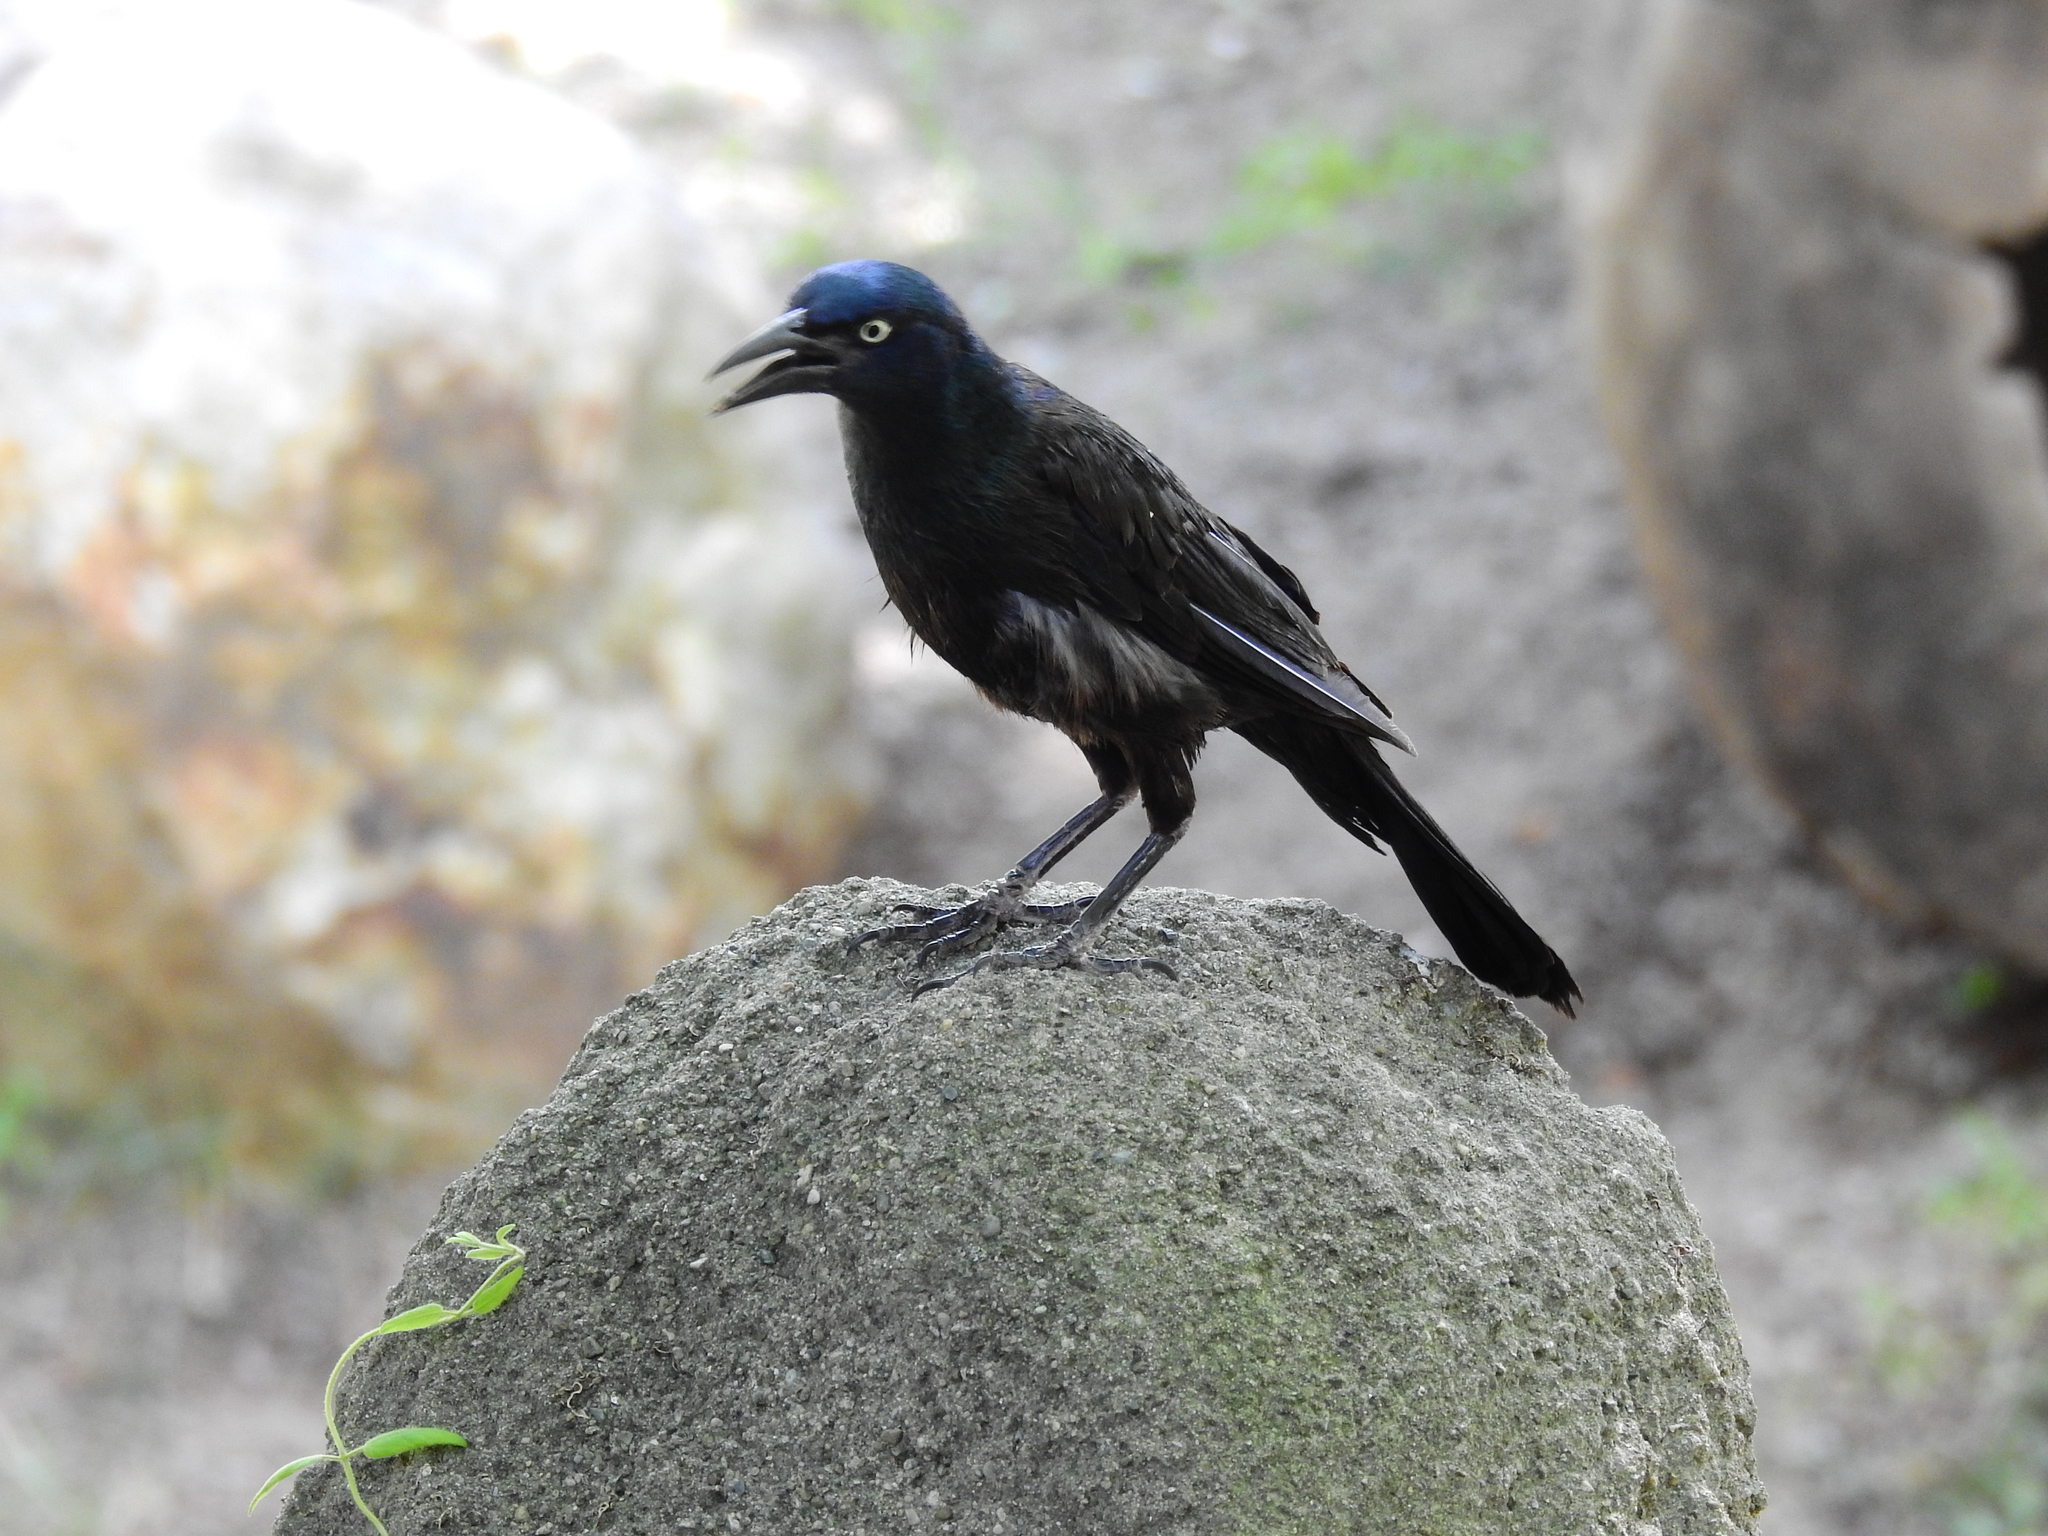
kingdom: Animalia
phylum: Chordata
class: Aves
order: Passeriformes
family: Icteridae
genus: Quiscalus
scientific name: Quiscalus quiscula
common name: Common grackle
